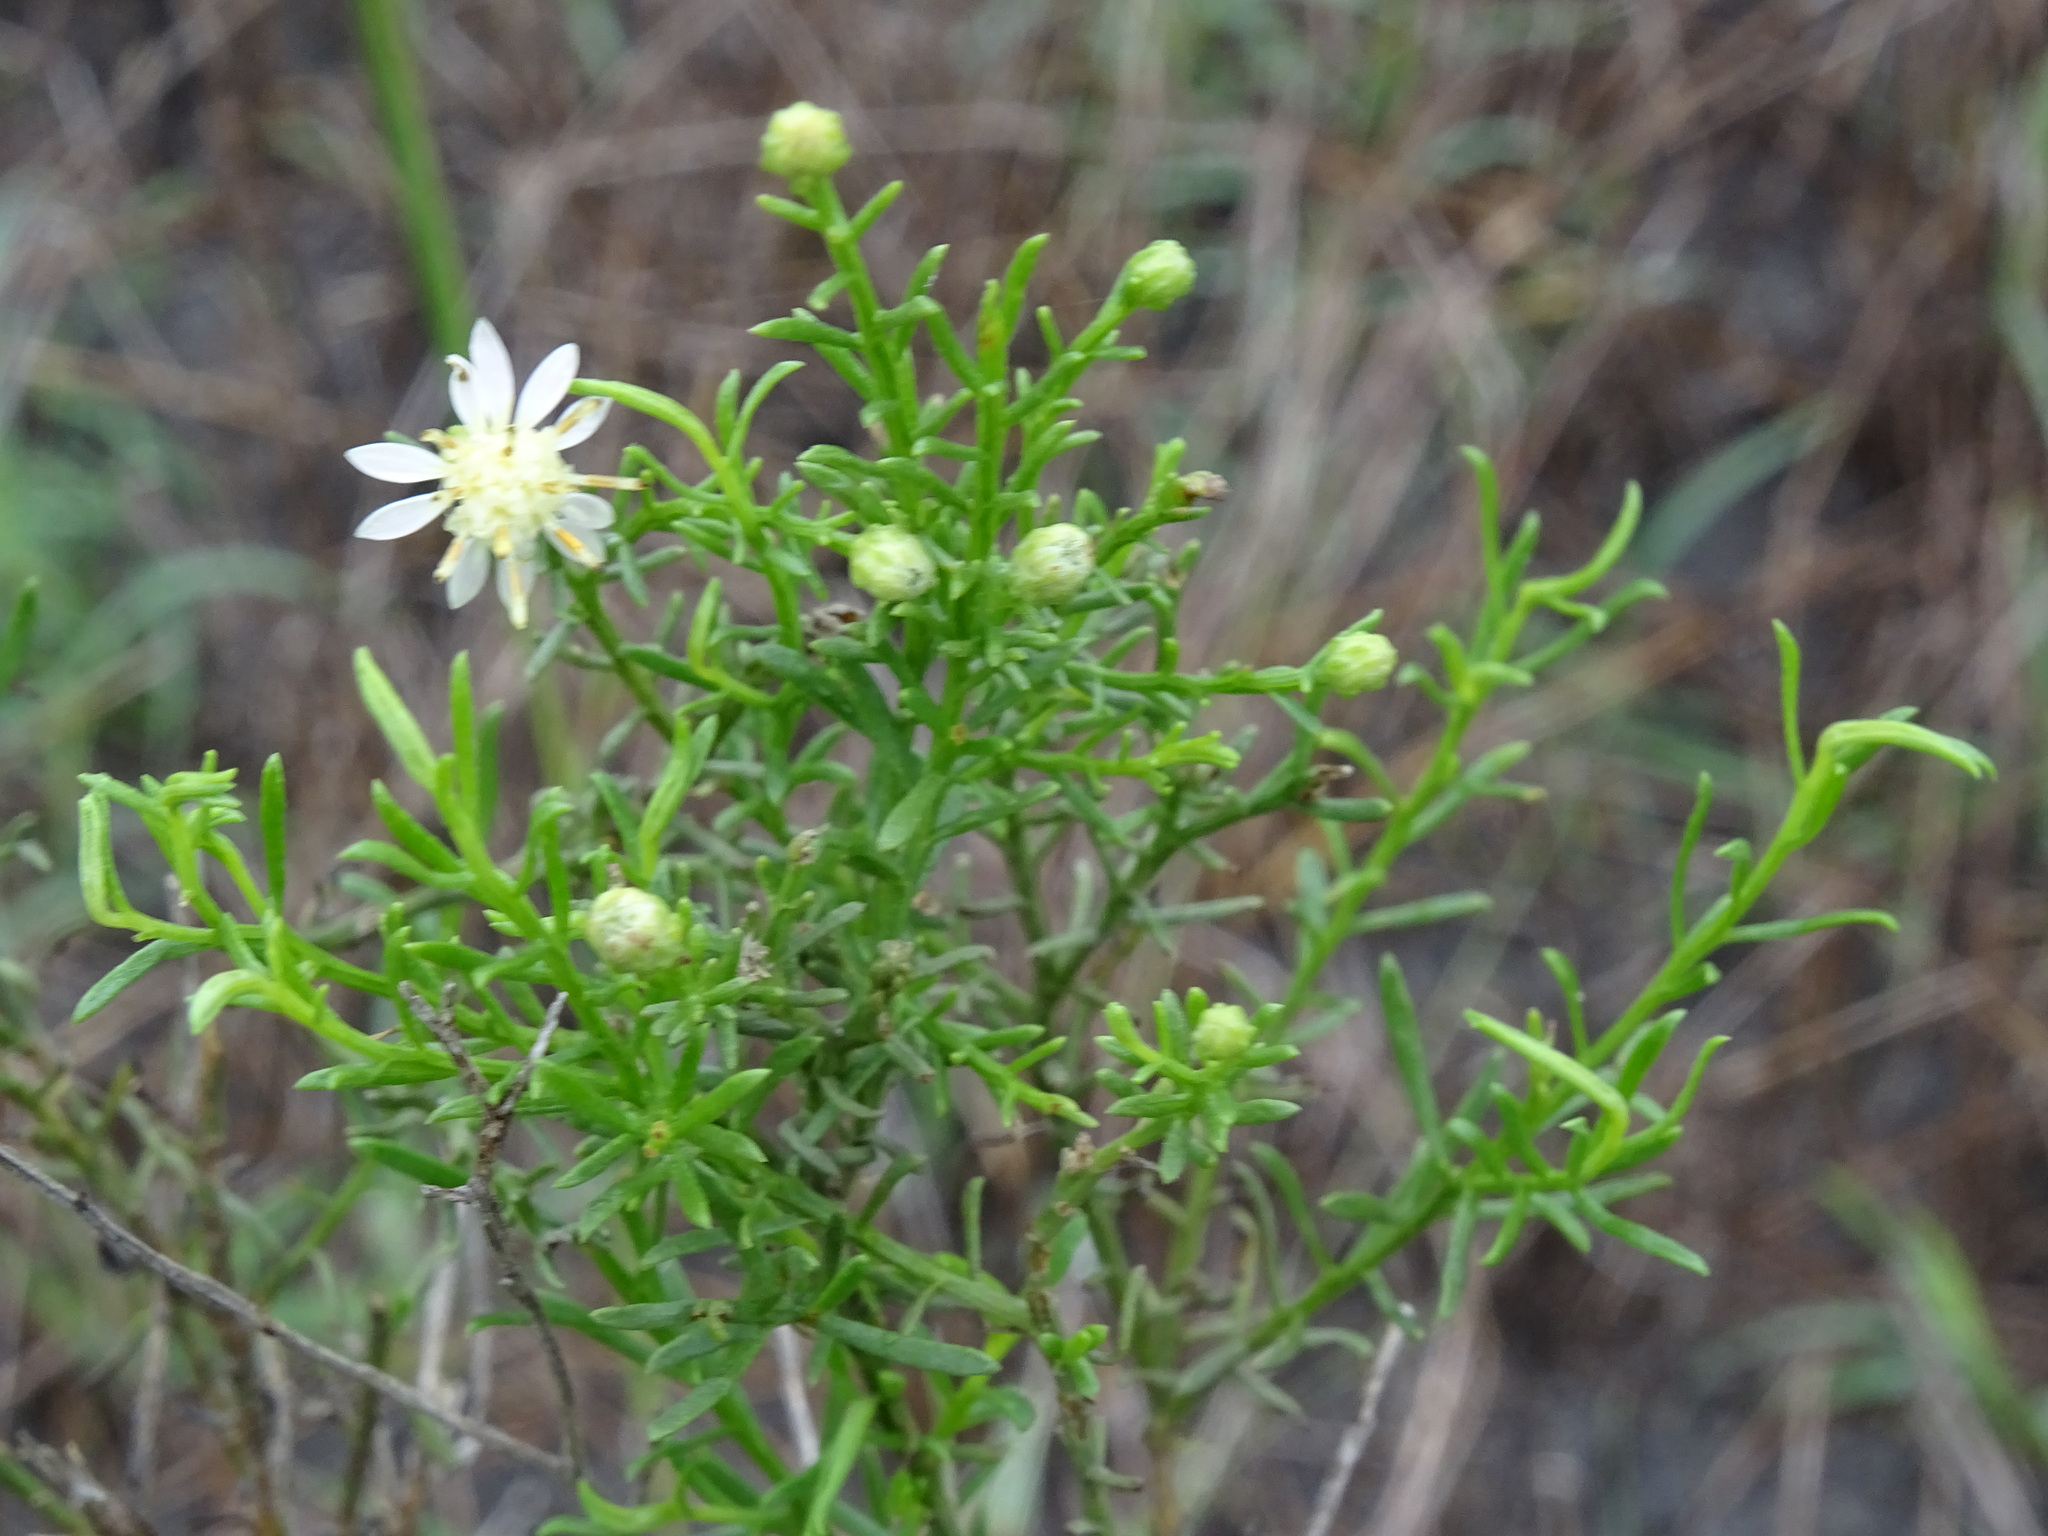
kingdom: Plantae
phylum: Tracheophyta
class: Magnoliopsida
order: Asterales
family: Asteraceae
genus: Medranoa
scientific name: Medranoa palmeri
